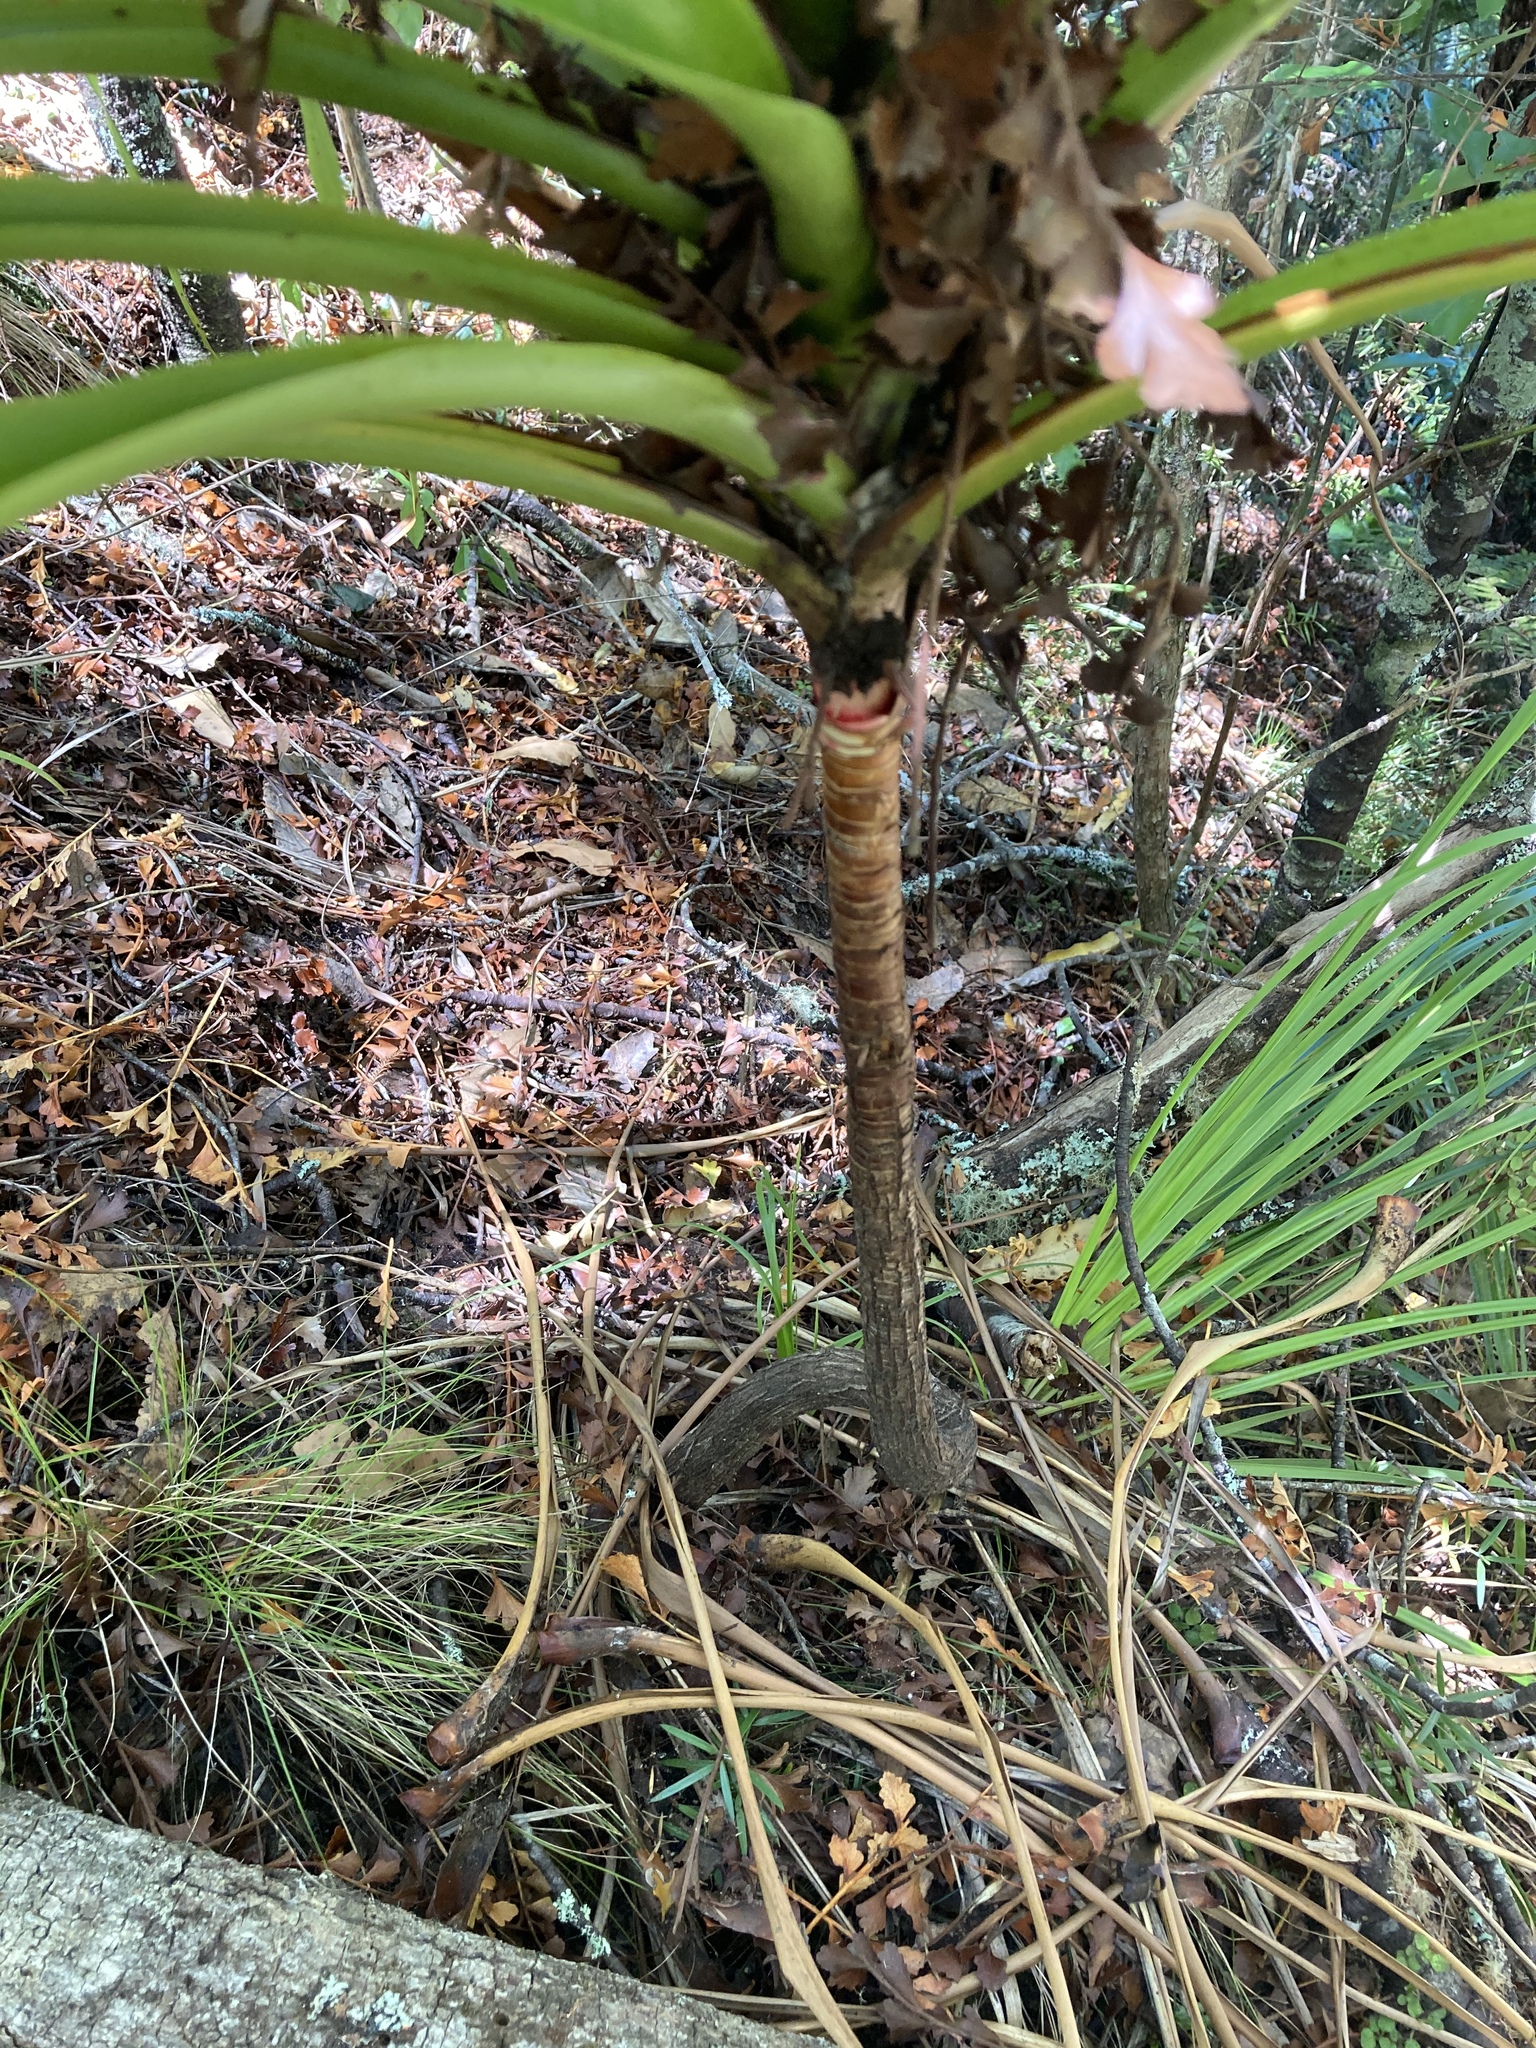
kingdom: Plantae
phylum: Tracheophyta
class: Magnoliopsida
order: Ericales
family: Ericaceae
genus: Dracophyllum
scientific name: Dracophyllum latifolium
